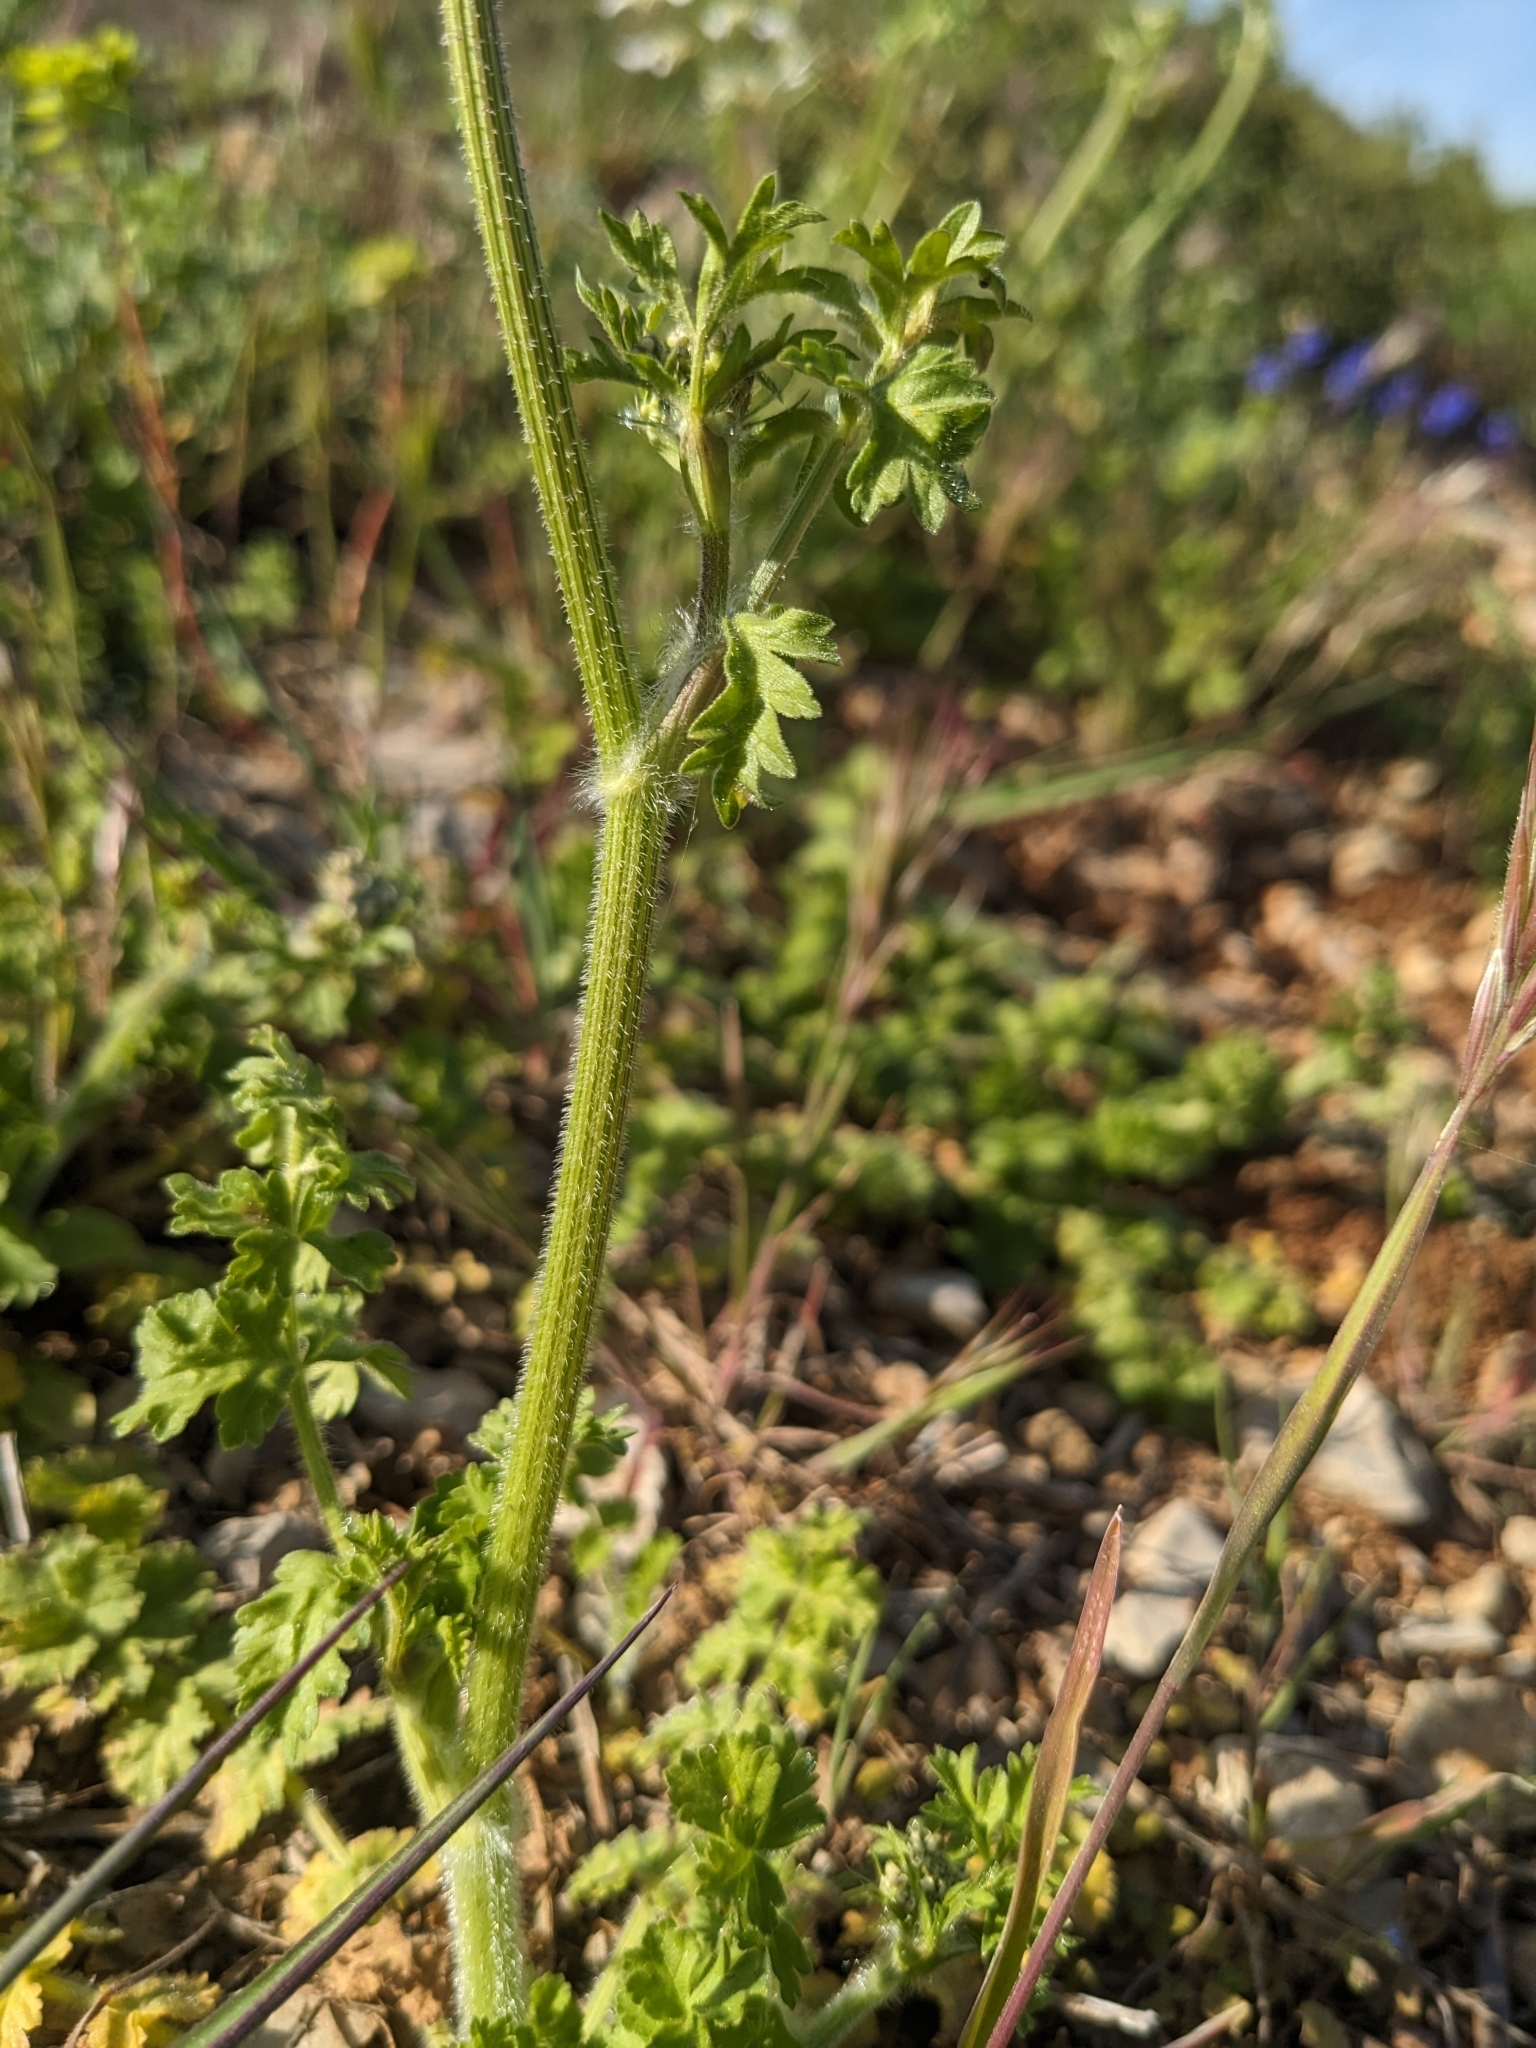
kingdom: Plantae
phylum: Tracheophyta
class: Magnoliopsida
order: Apiales
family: Apiaceae
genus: Tordylium
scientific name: Tordylium apulum
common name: Mediterranean hartwort
